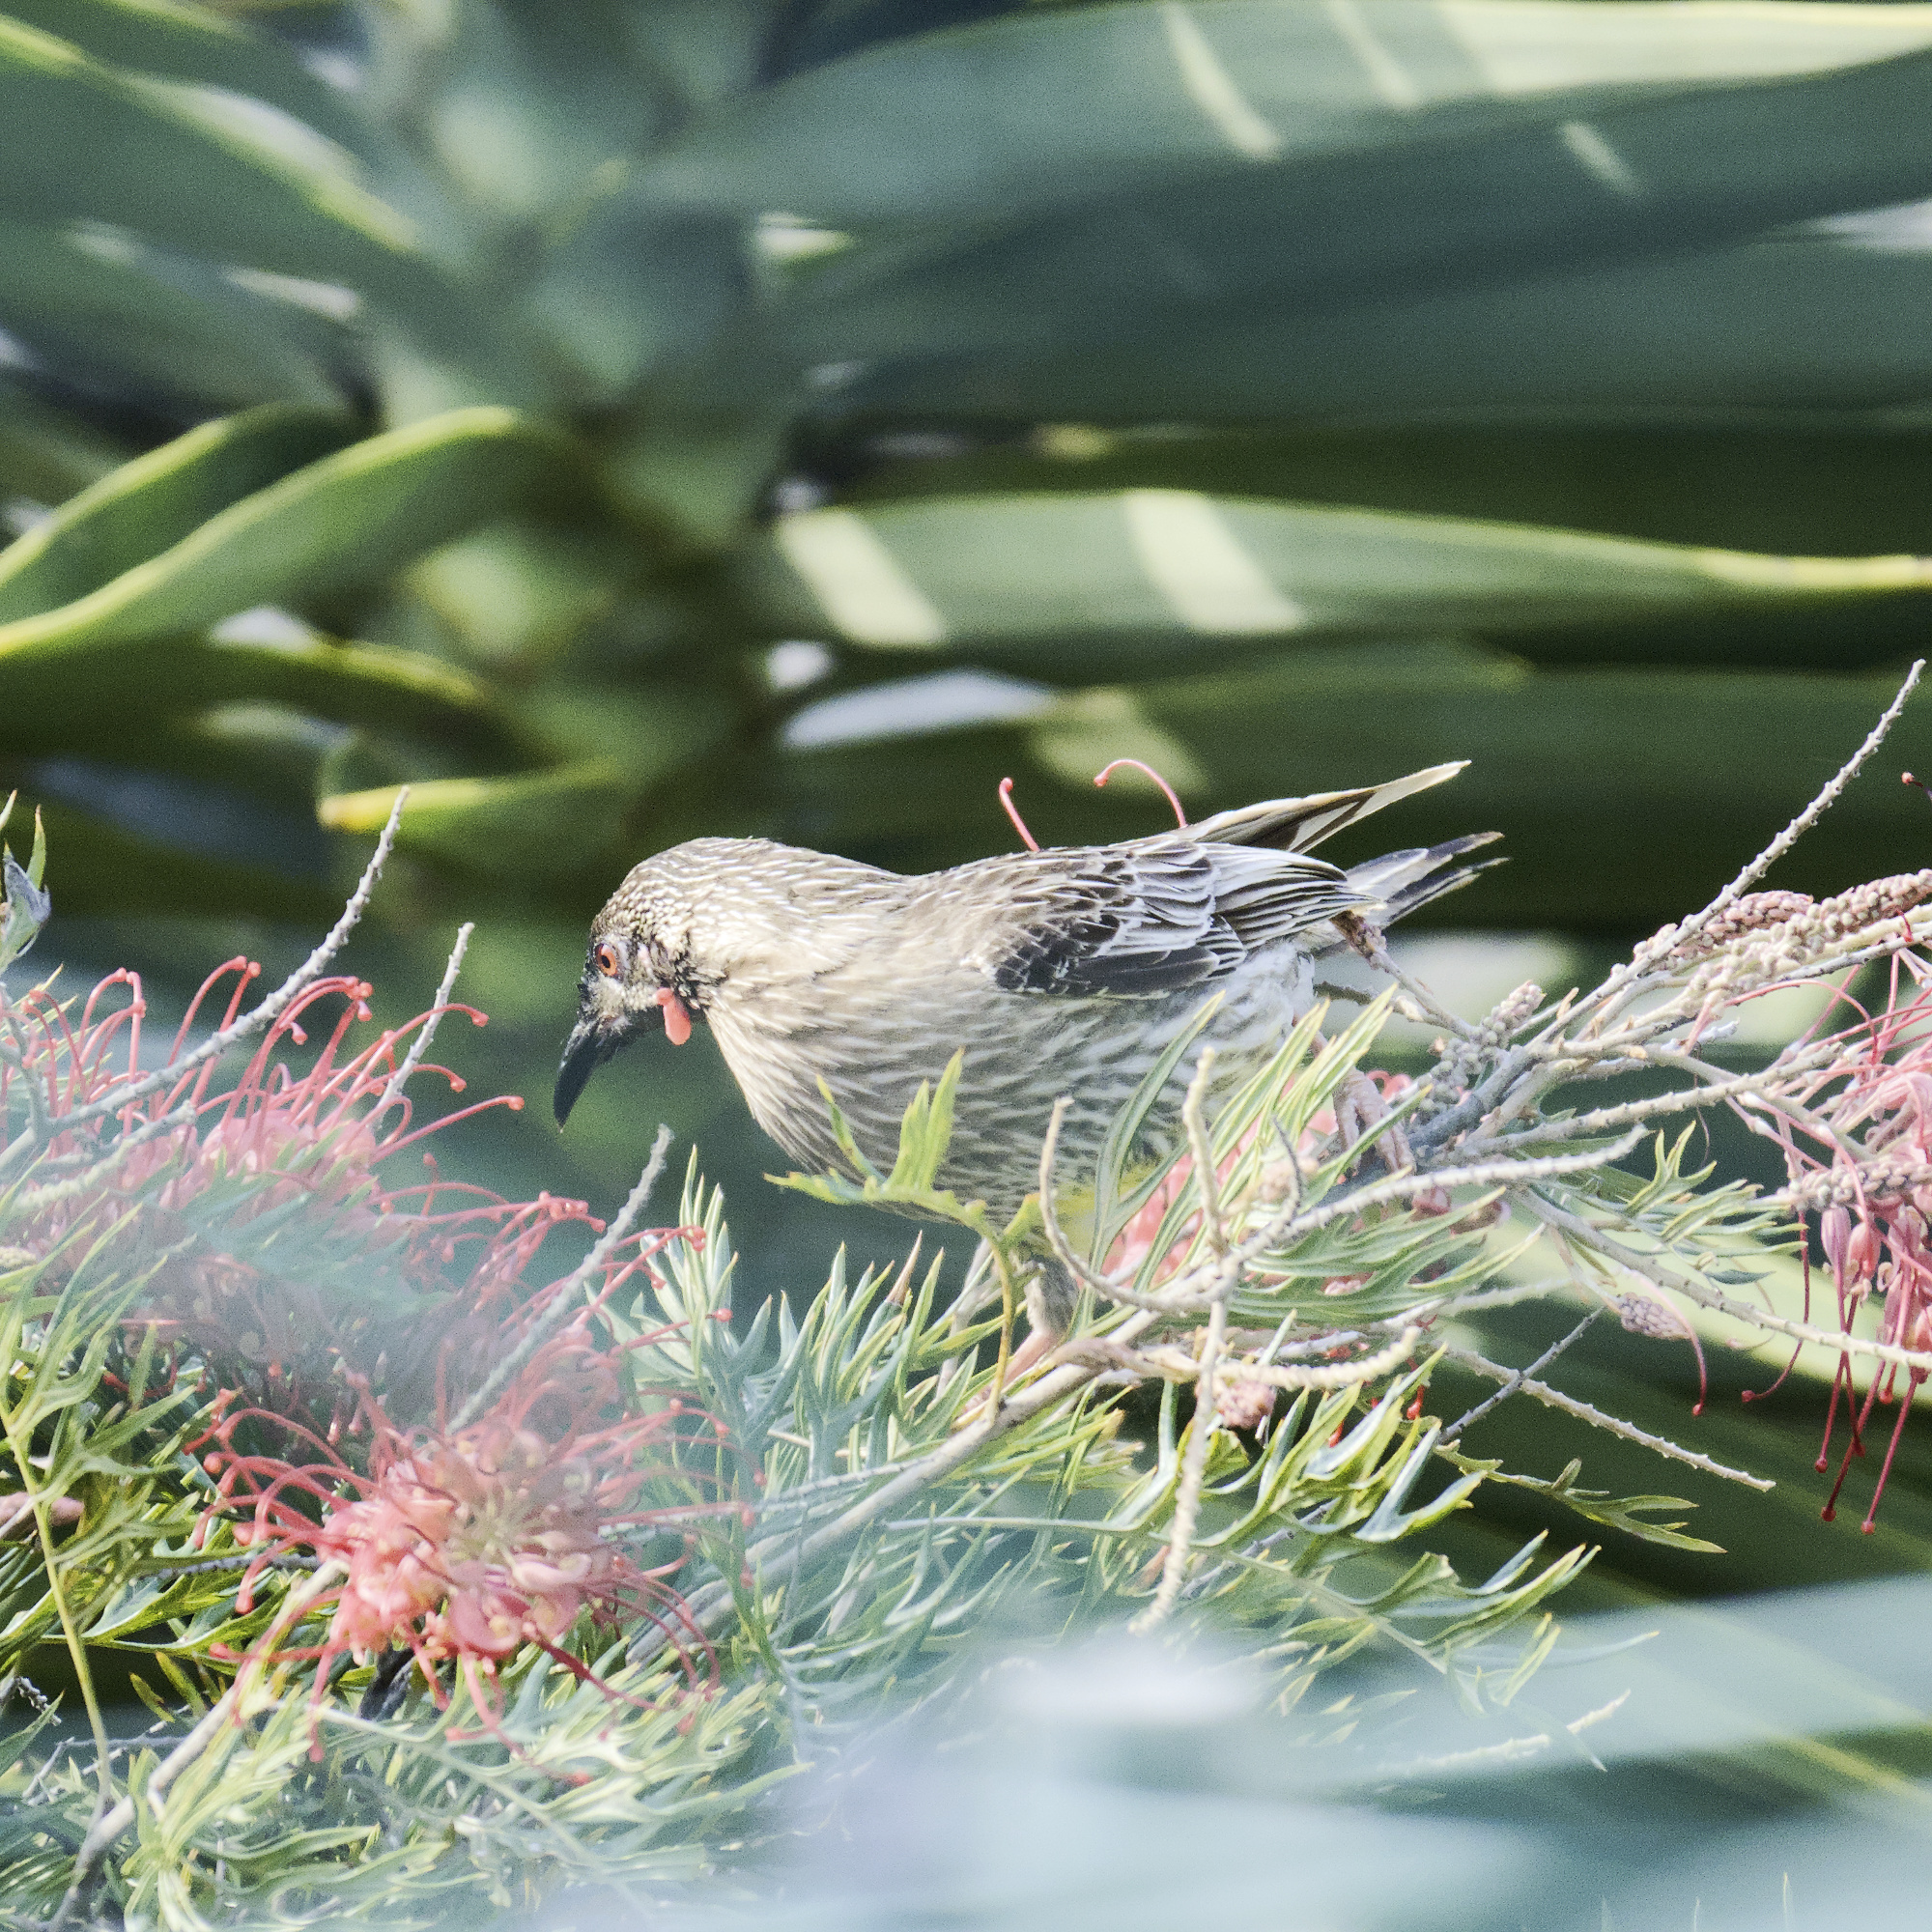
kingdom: Animalia
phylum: Chordata
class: Aves
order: Passeriformes
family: Meliphagidae
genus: Anthochaera
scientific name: Anthochaera carunculata
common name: Red wattlebird
